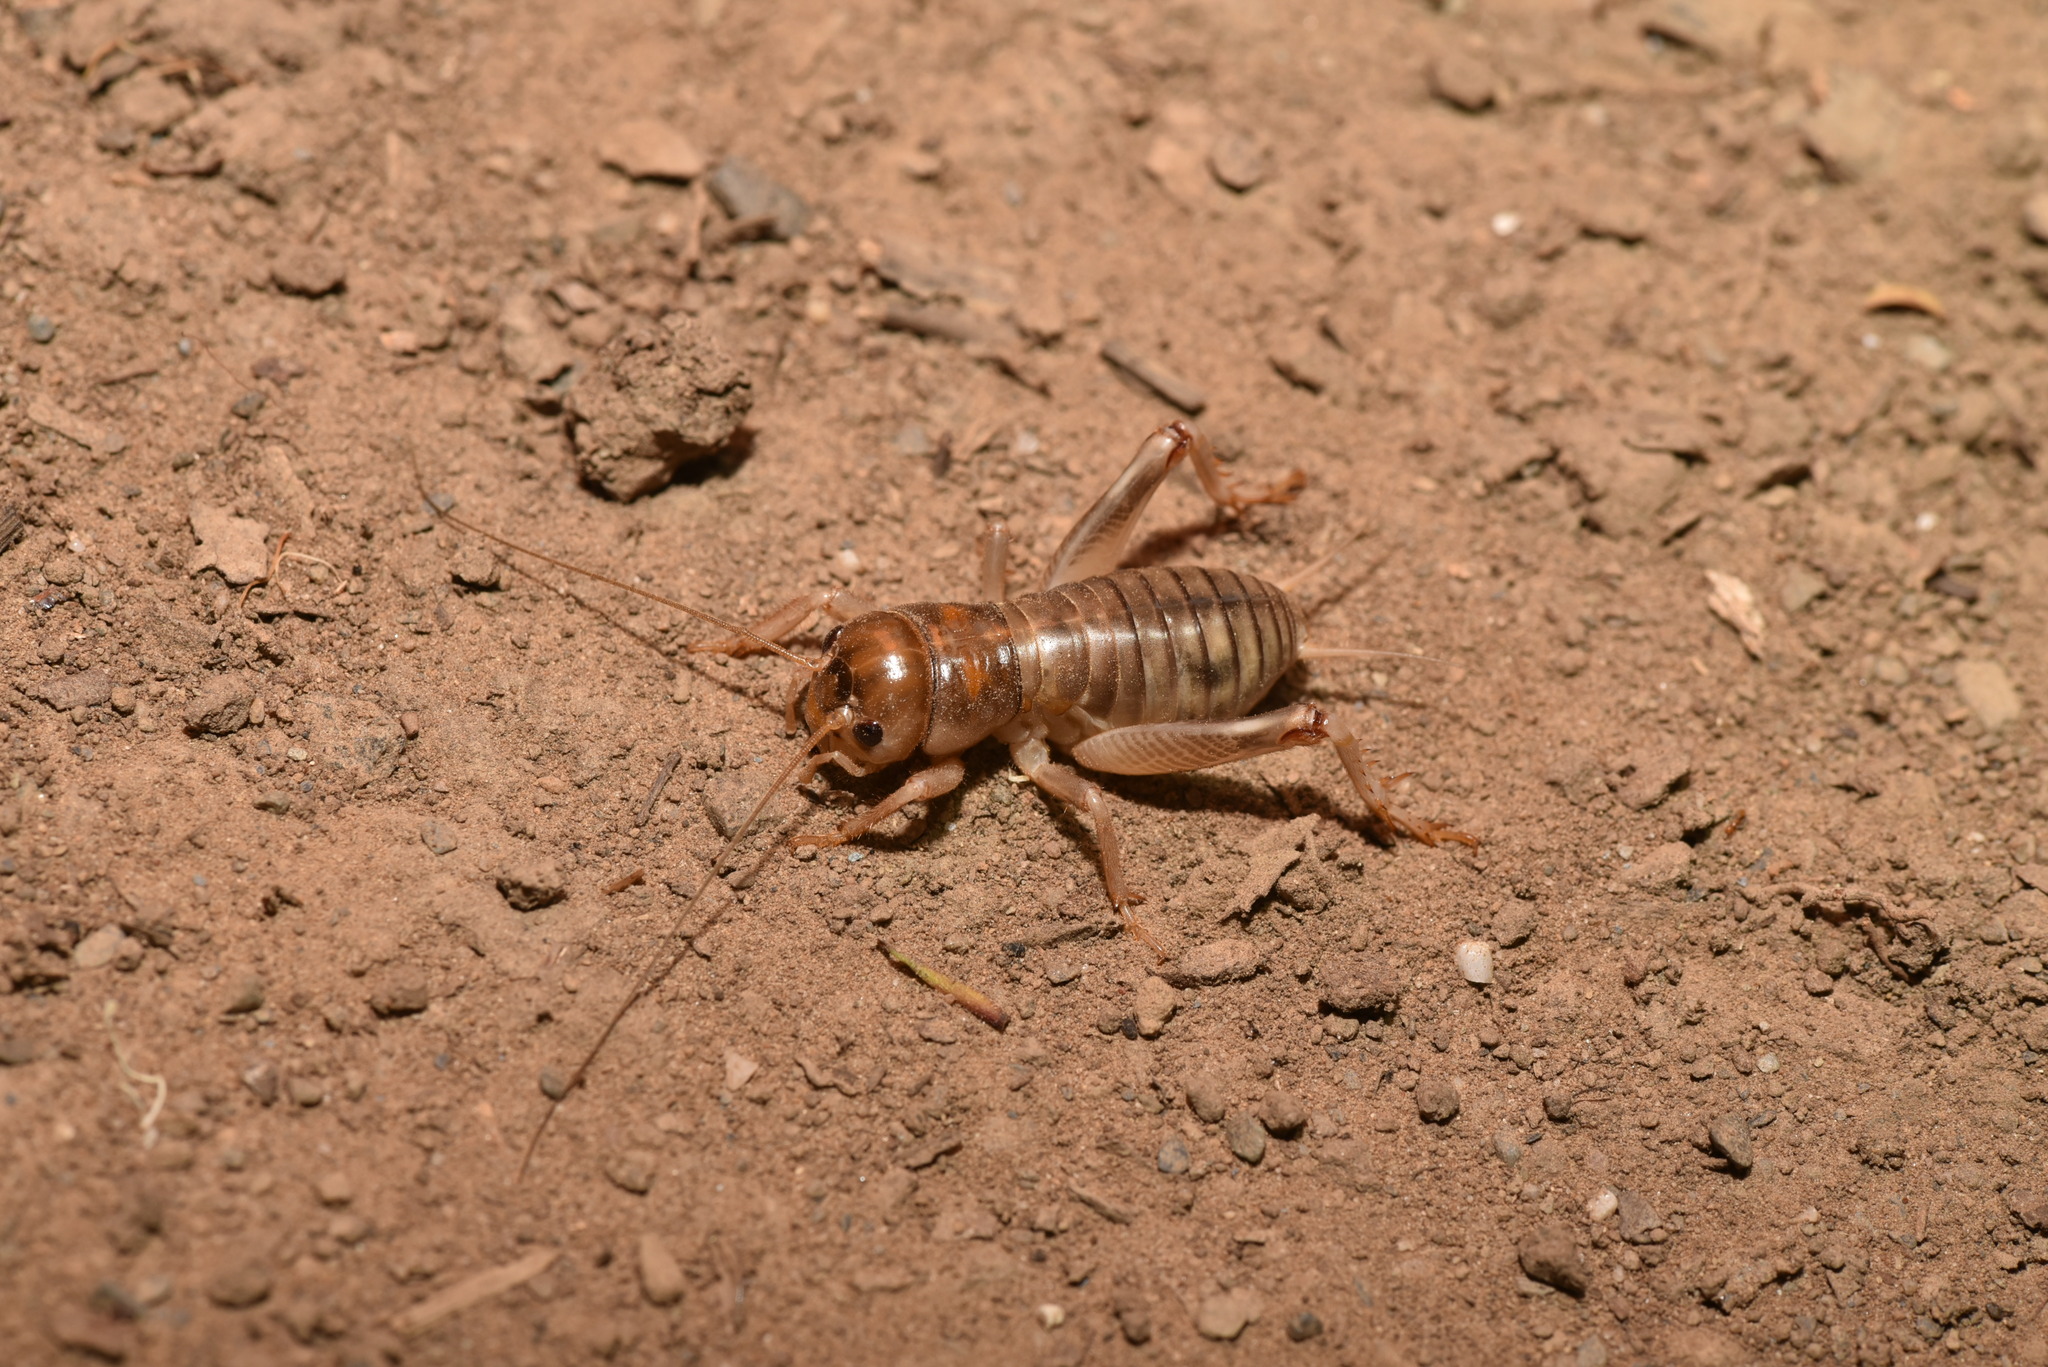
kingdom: Animalia
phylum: Arthropoda
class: Insecta
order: Orthoptera
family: Gryllidae
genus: Tarbinskiellus
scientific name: Tarbinskiellus portentosus
